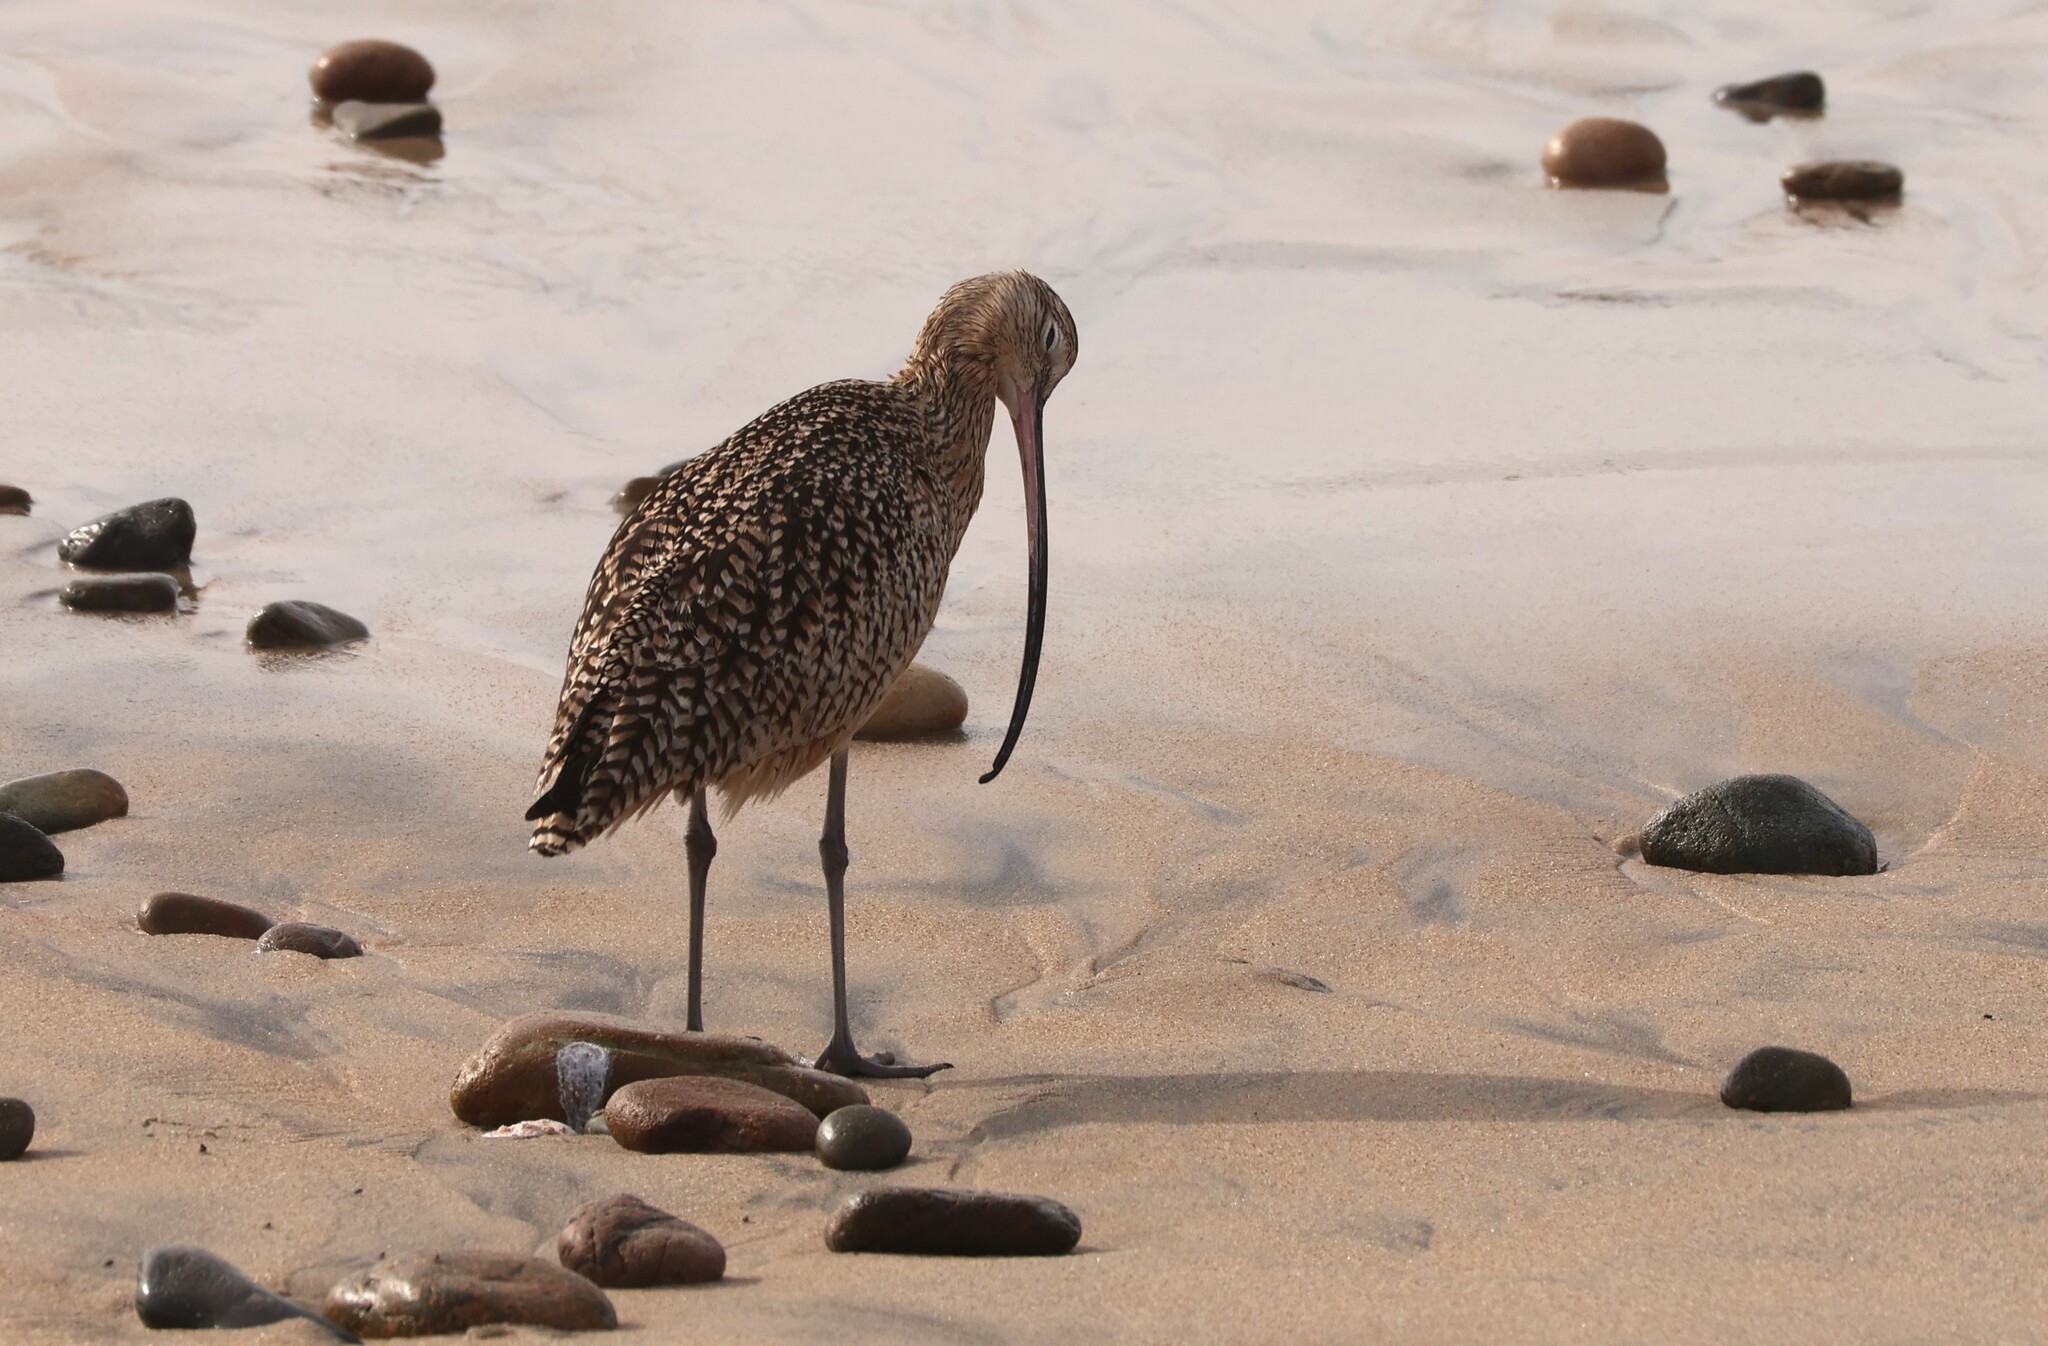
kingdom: Animalia
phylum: Chordata
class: Aves
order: Charadriiformes
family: Scolopacidae
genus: Numenius
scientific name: Numenius americanus
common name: Long-billed curlew
